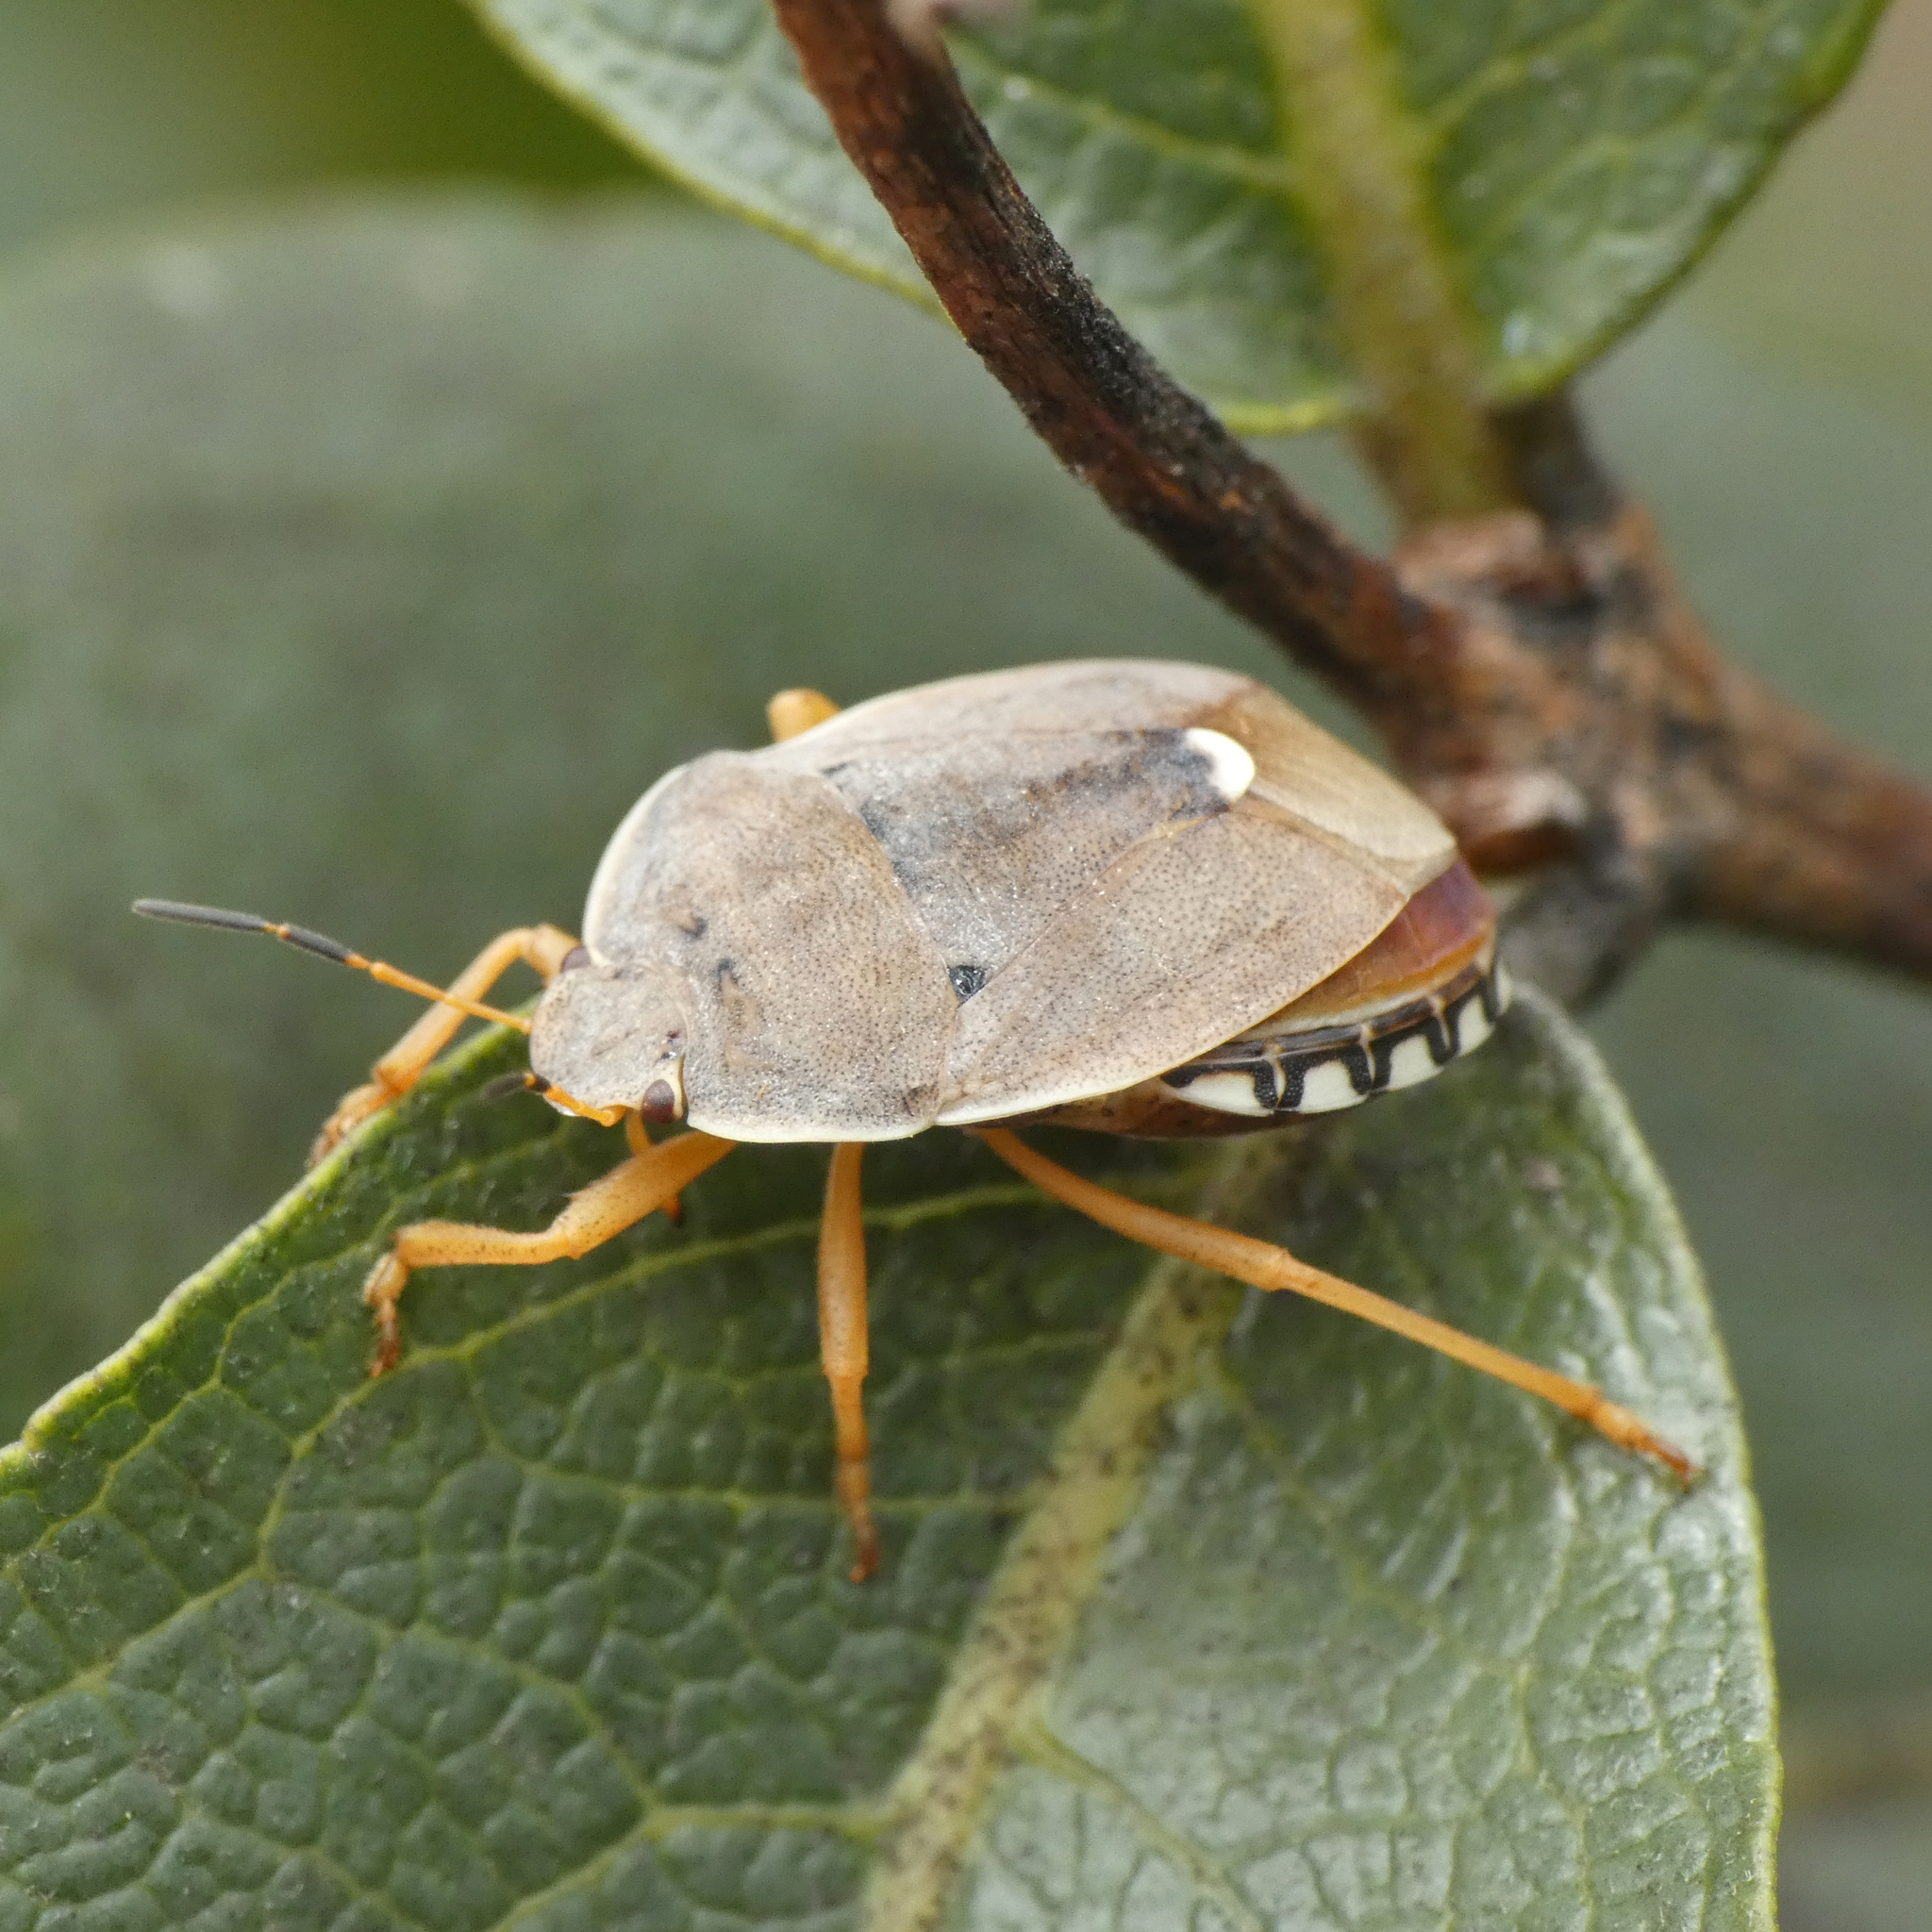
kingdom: Animalia
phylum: Arthropoda
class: Insecta
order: Hemiptera
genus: Erachtheus
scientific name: Erachtheus
